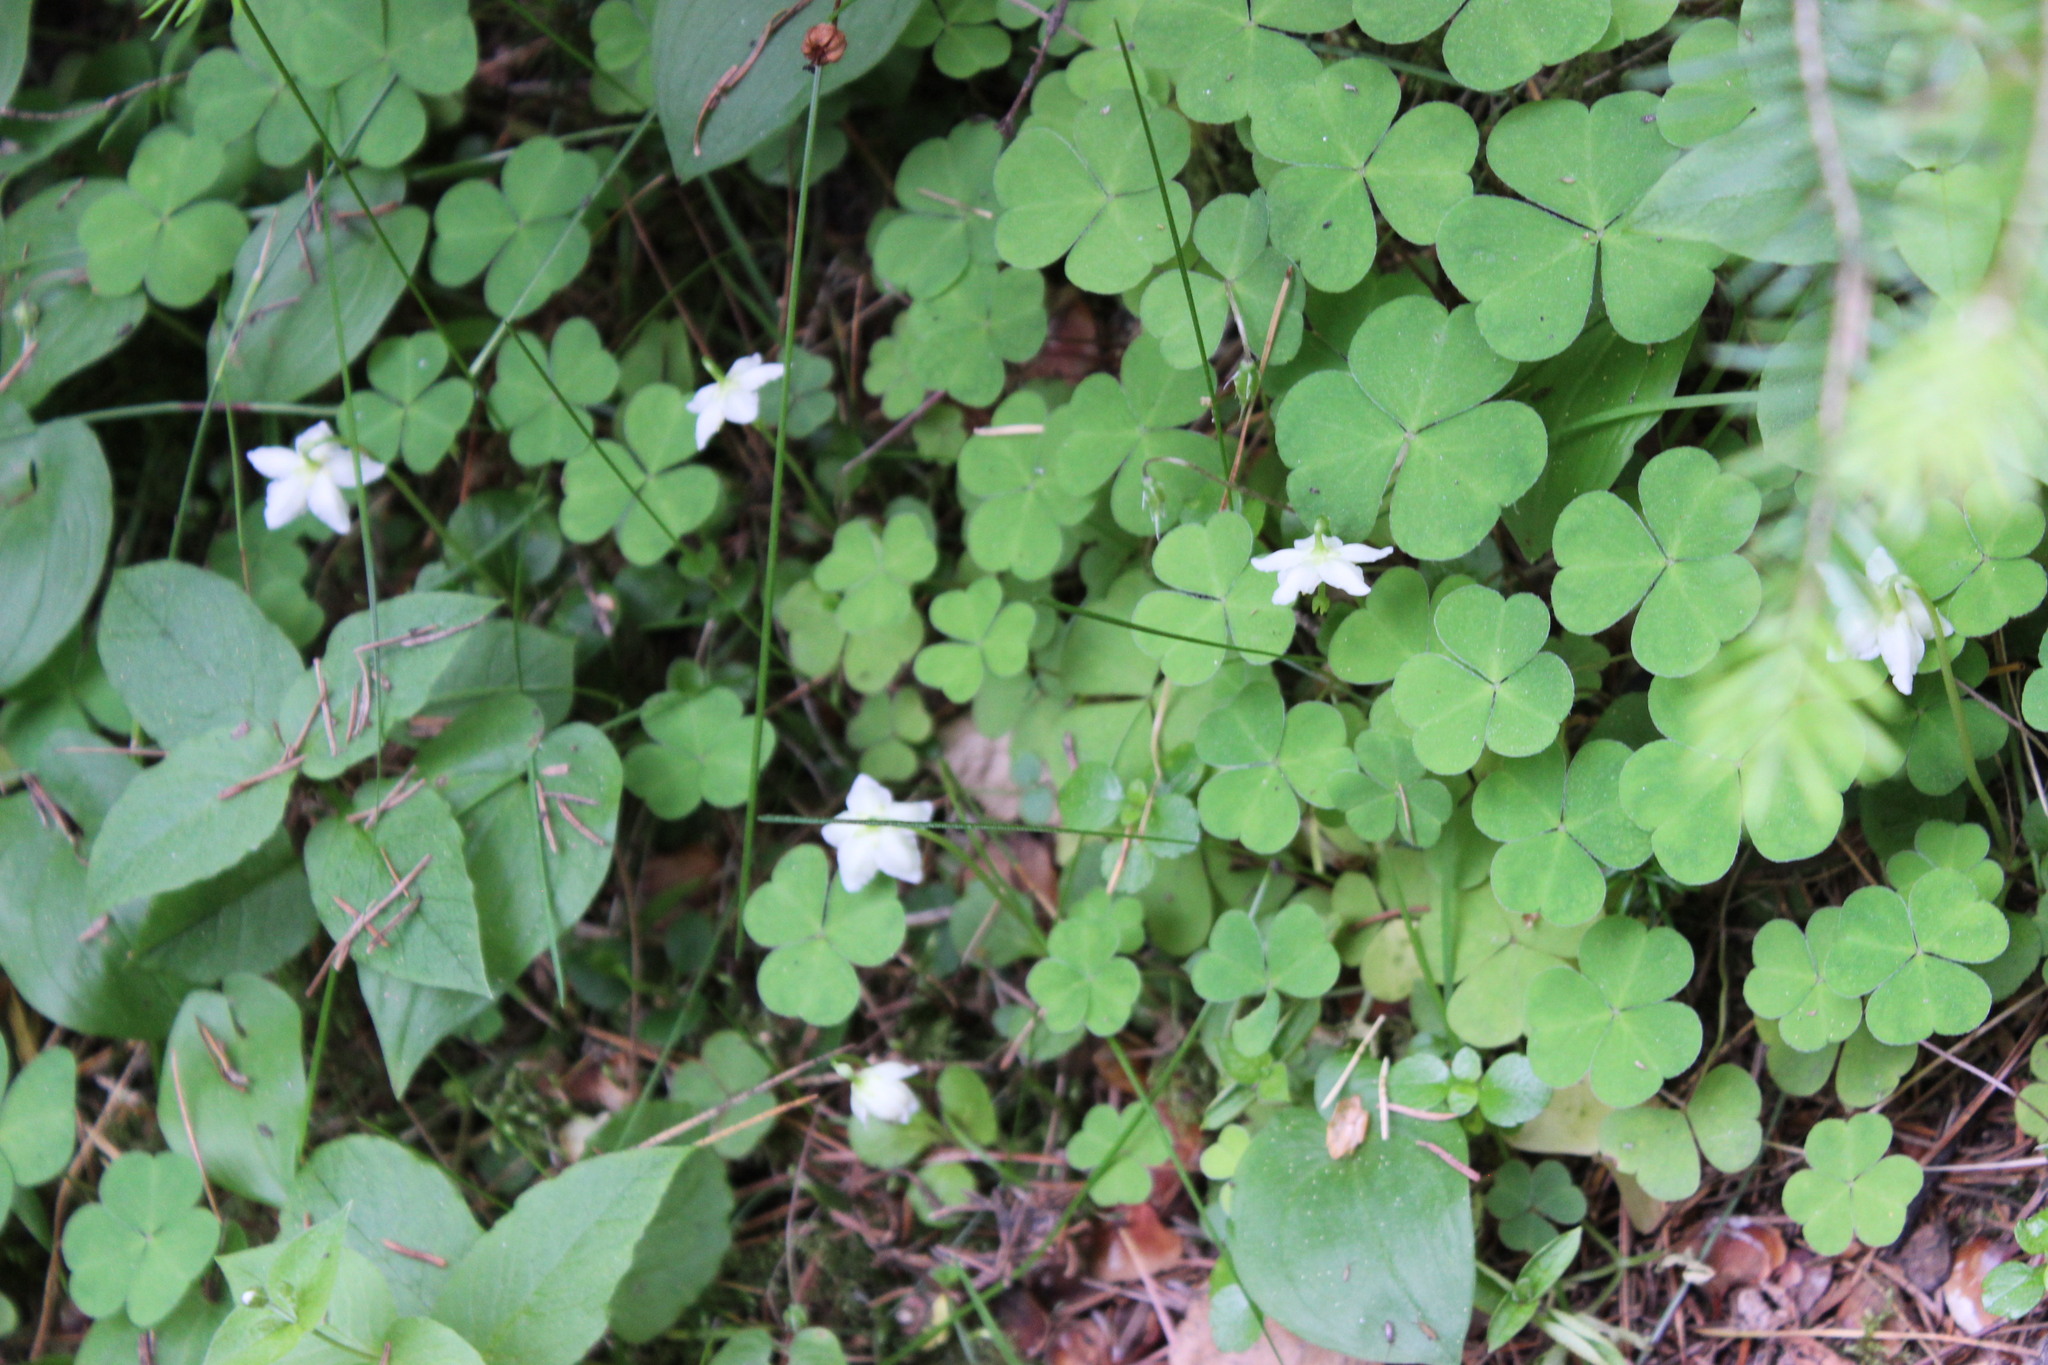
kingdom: Plantae
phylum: Tracheophyta
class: Magnoliopsida
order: Ericales
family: Ericaceae
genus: Moneses
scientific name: Moneses uniflora
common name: One-flowered wintergreen
